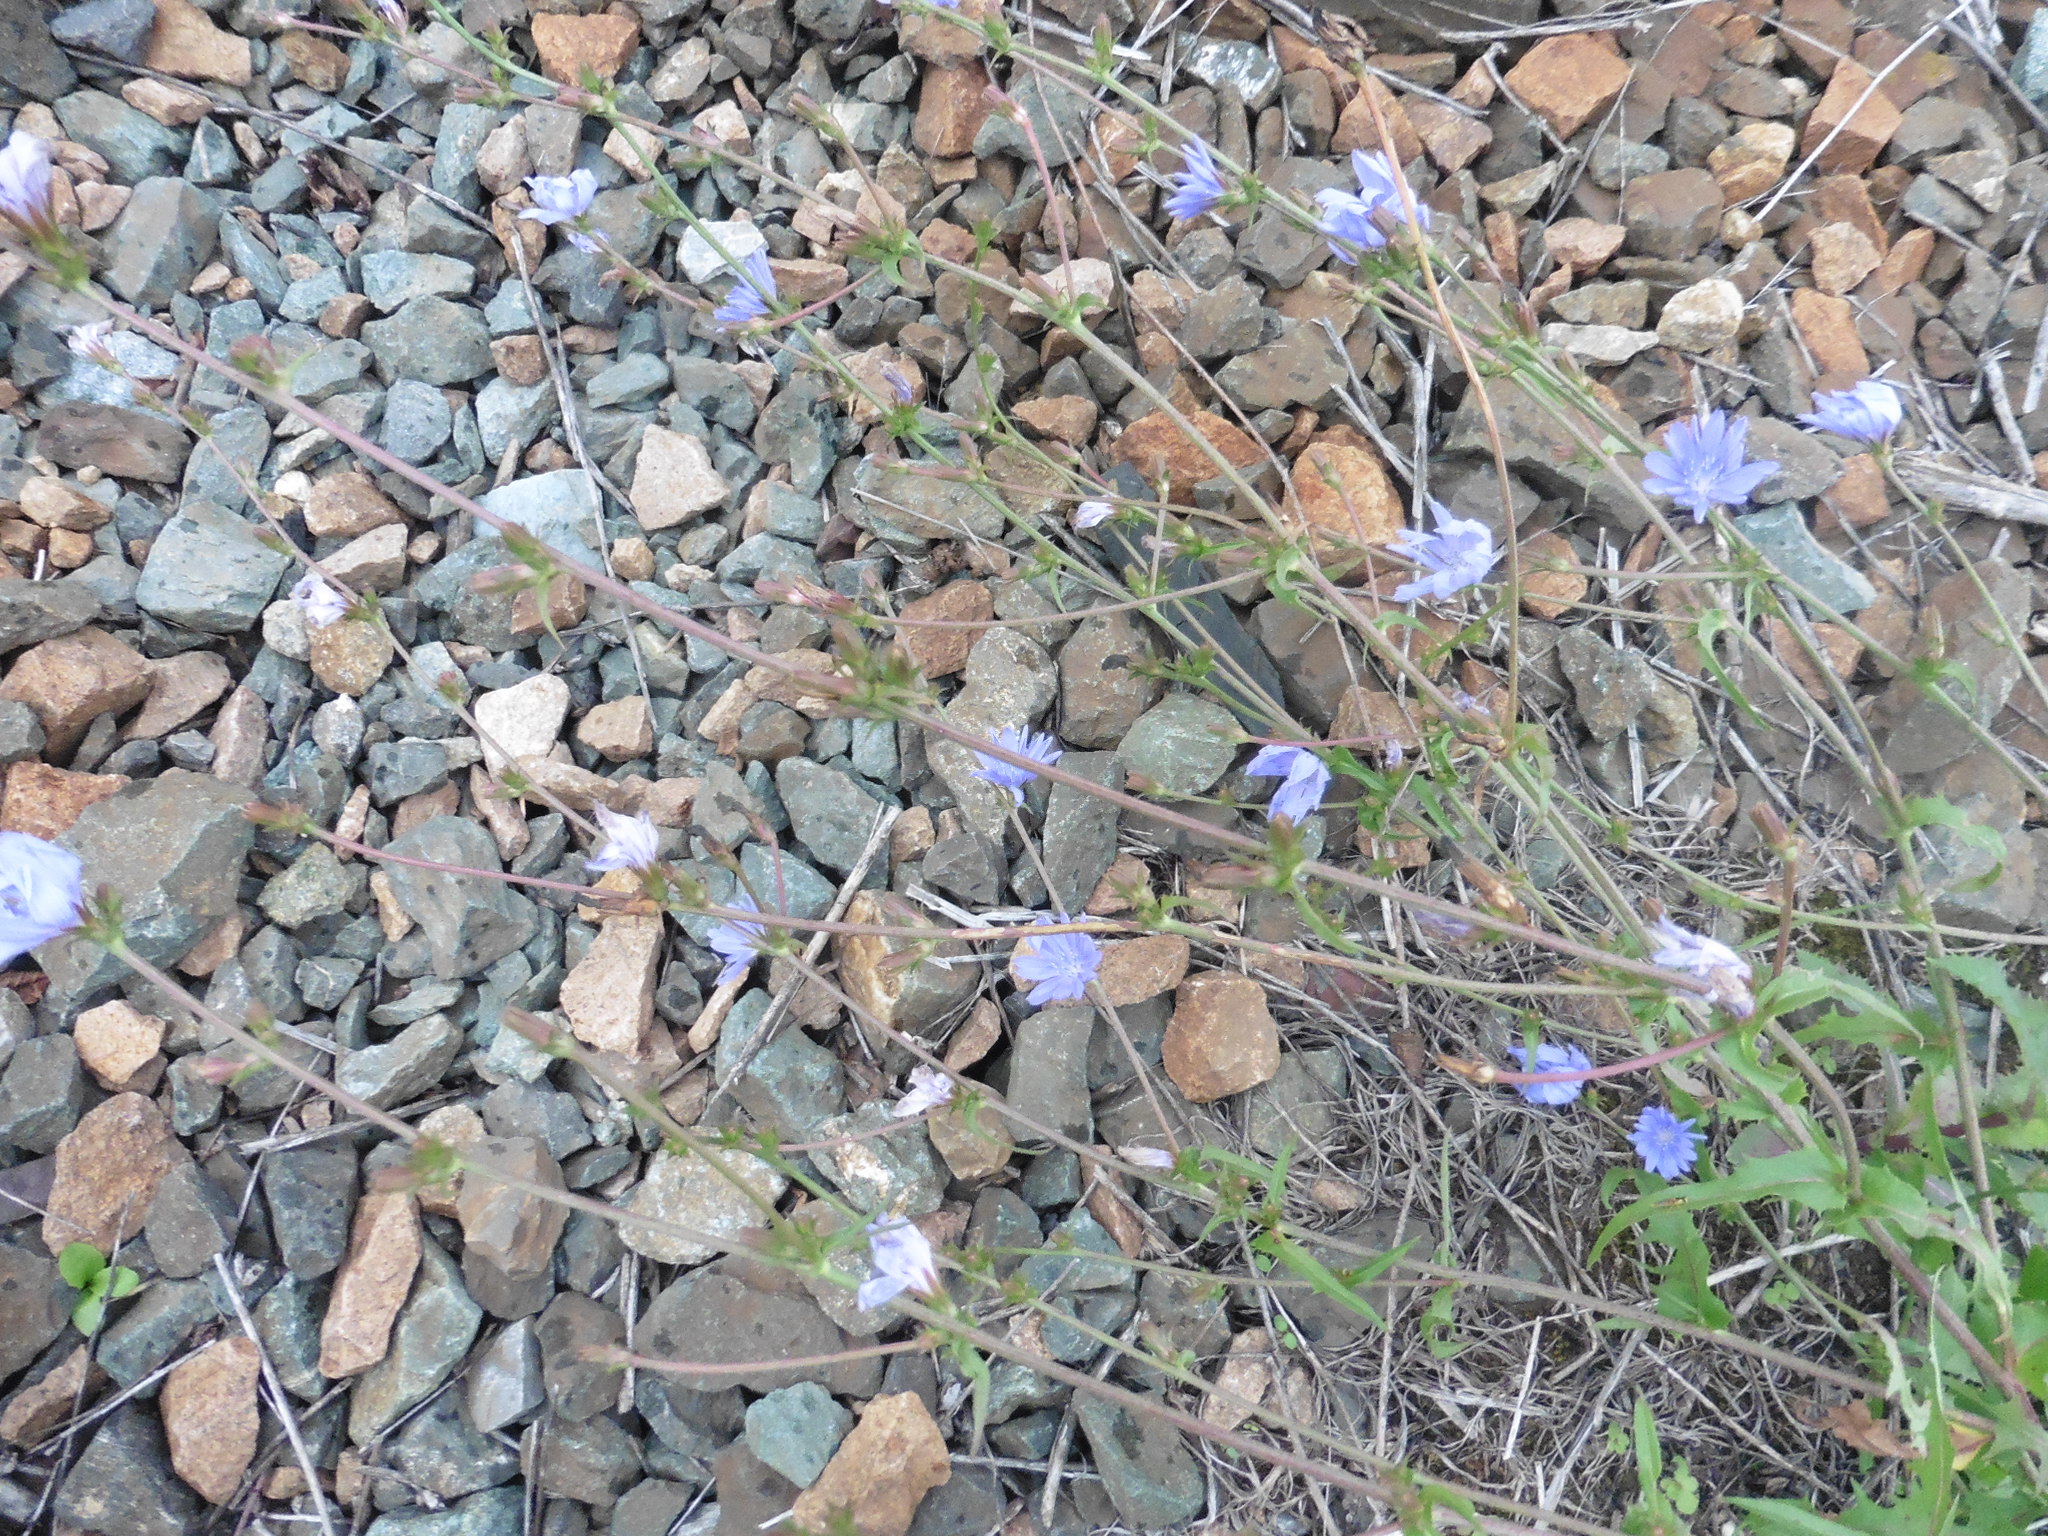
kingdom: Plantae
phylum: Tracheophyta
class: Magnoliopsida
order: Asterales
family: Asteraceae
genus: Cichorium
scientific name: Cichorium intybus
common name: Chicory
